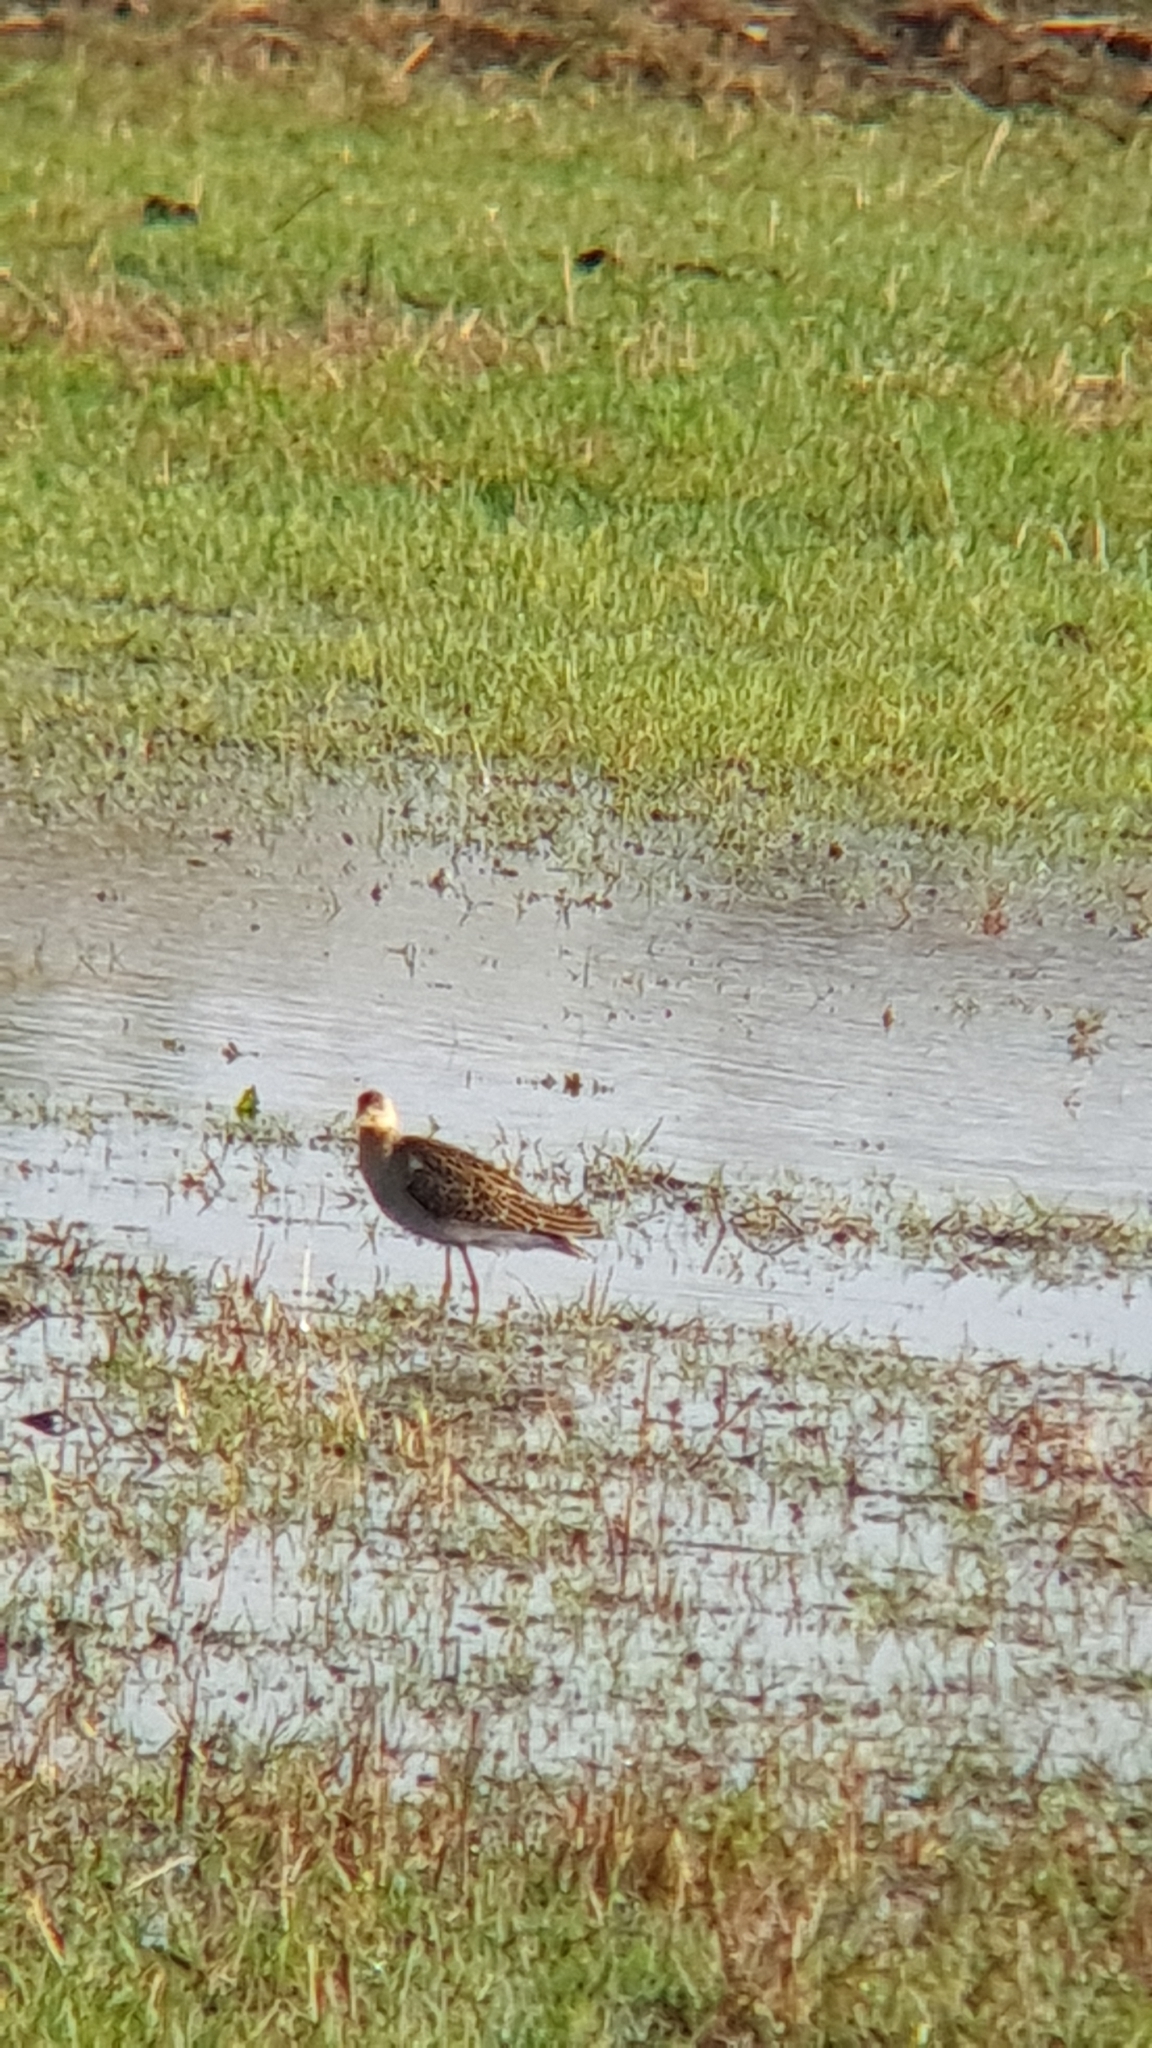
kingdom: Animalia
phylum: Chordata
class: Aves
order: Charadriiformes
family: Scolopacidae
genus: Calidris
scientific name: Calidris pugnax
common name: Ruff
